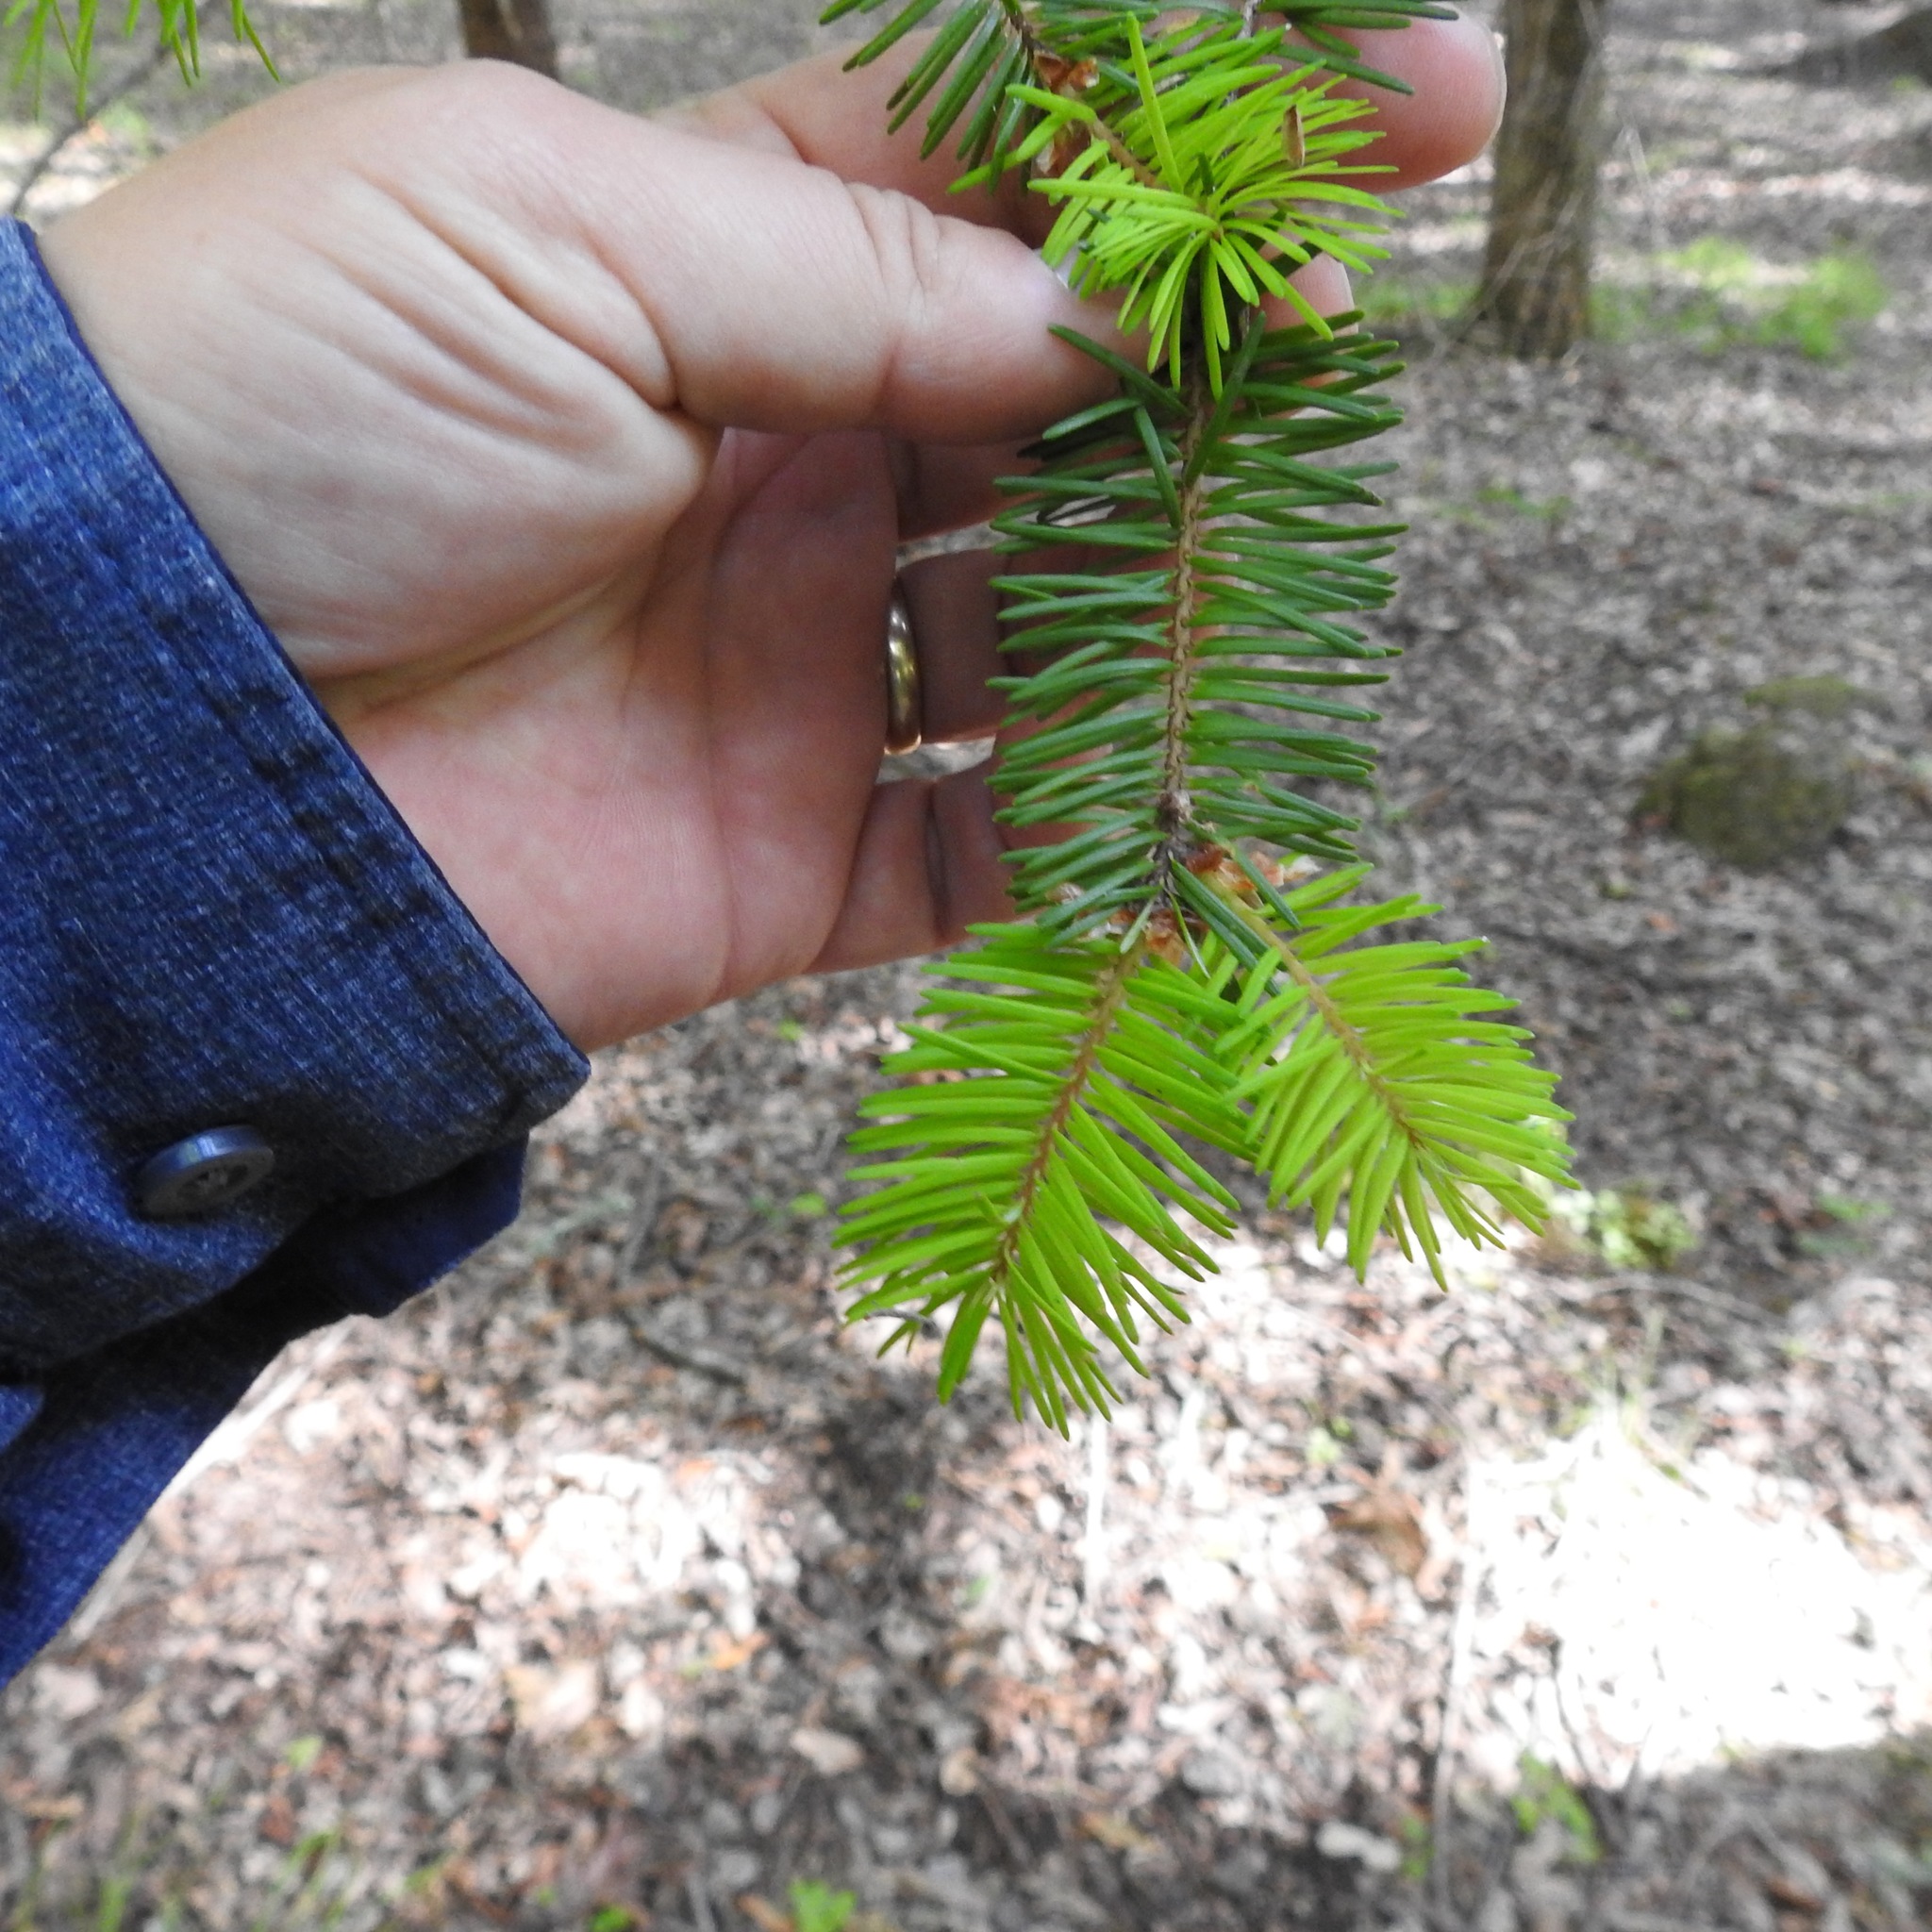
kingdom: Plantae
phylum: Tracheophyta
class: Pinopsida
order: Pinales
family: Pinaceae
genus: Pseudotsuga
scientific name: Pseudotsuga menziesii
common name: Douglas fir
